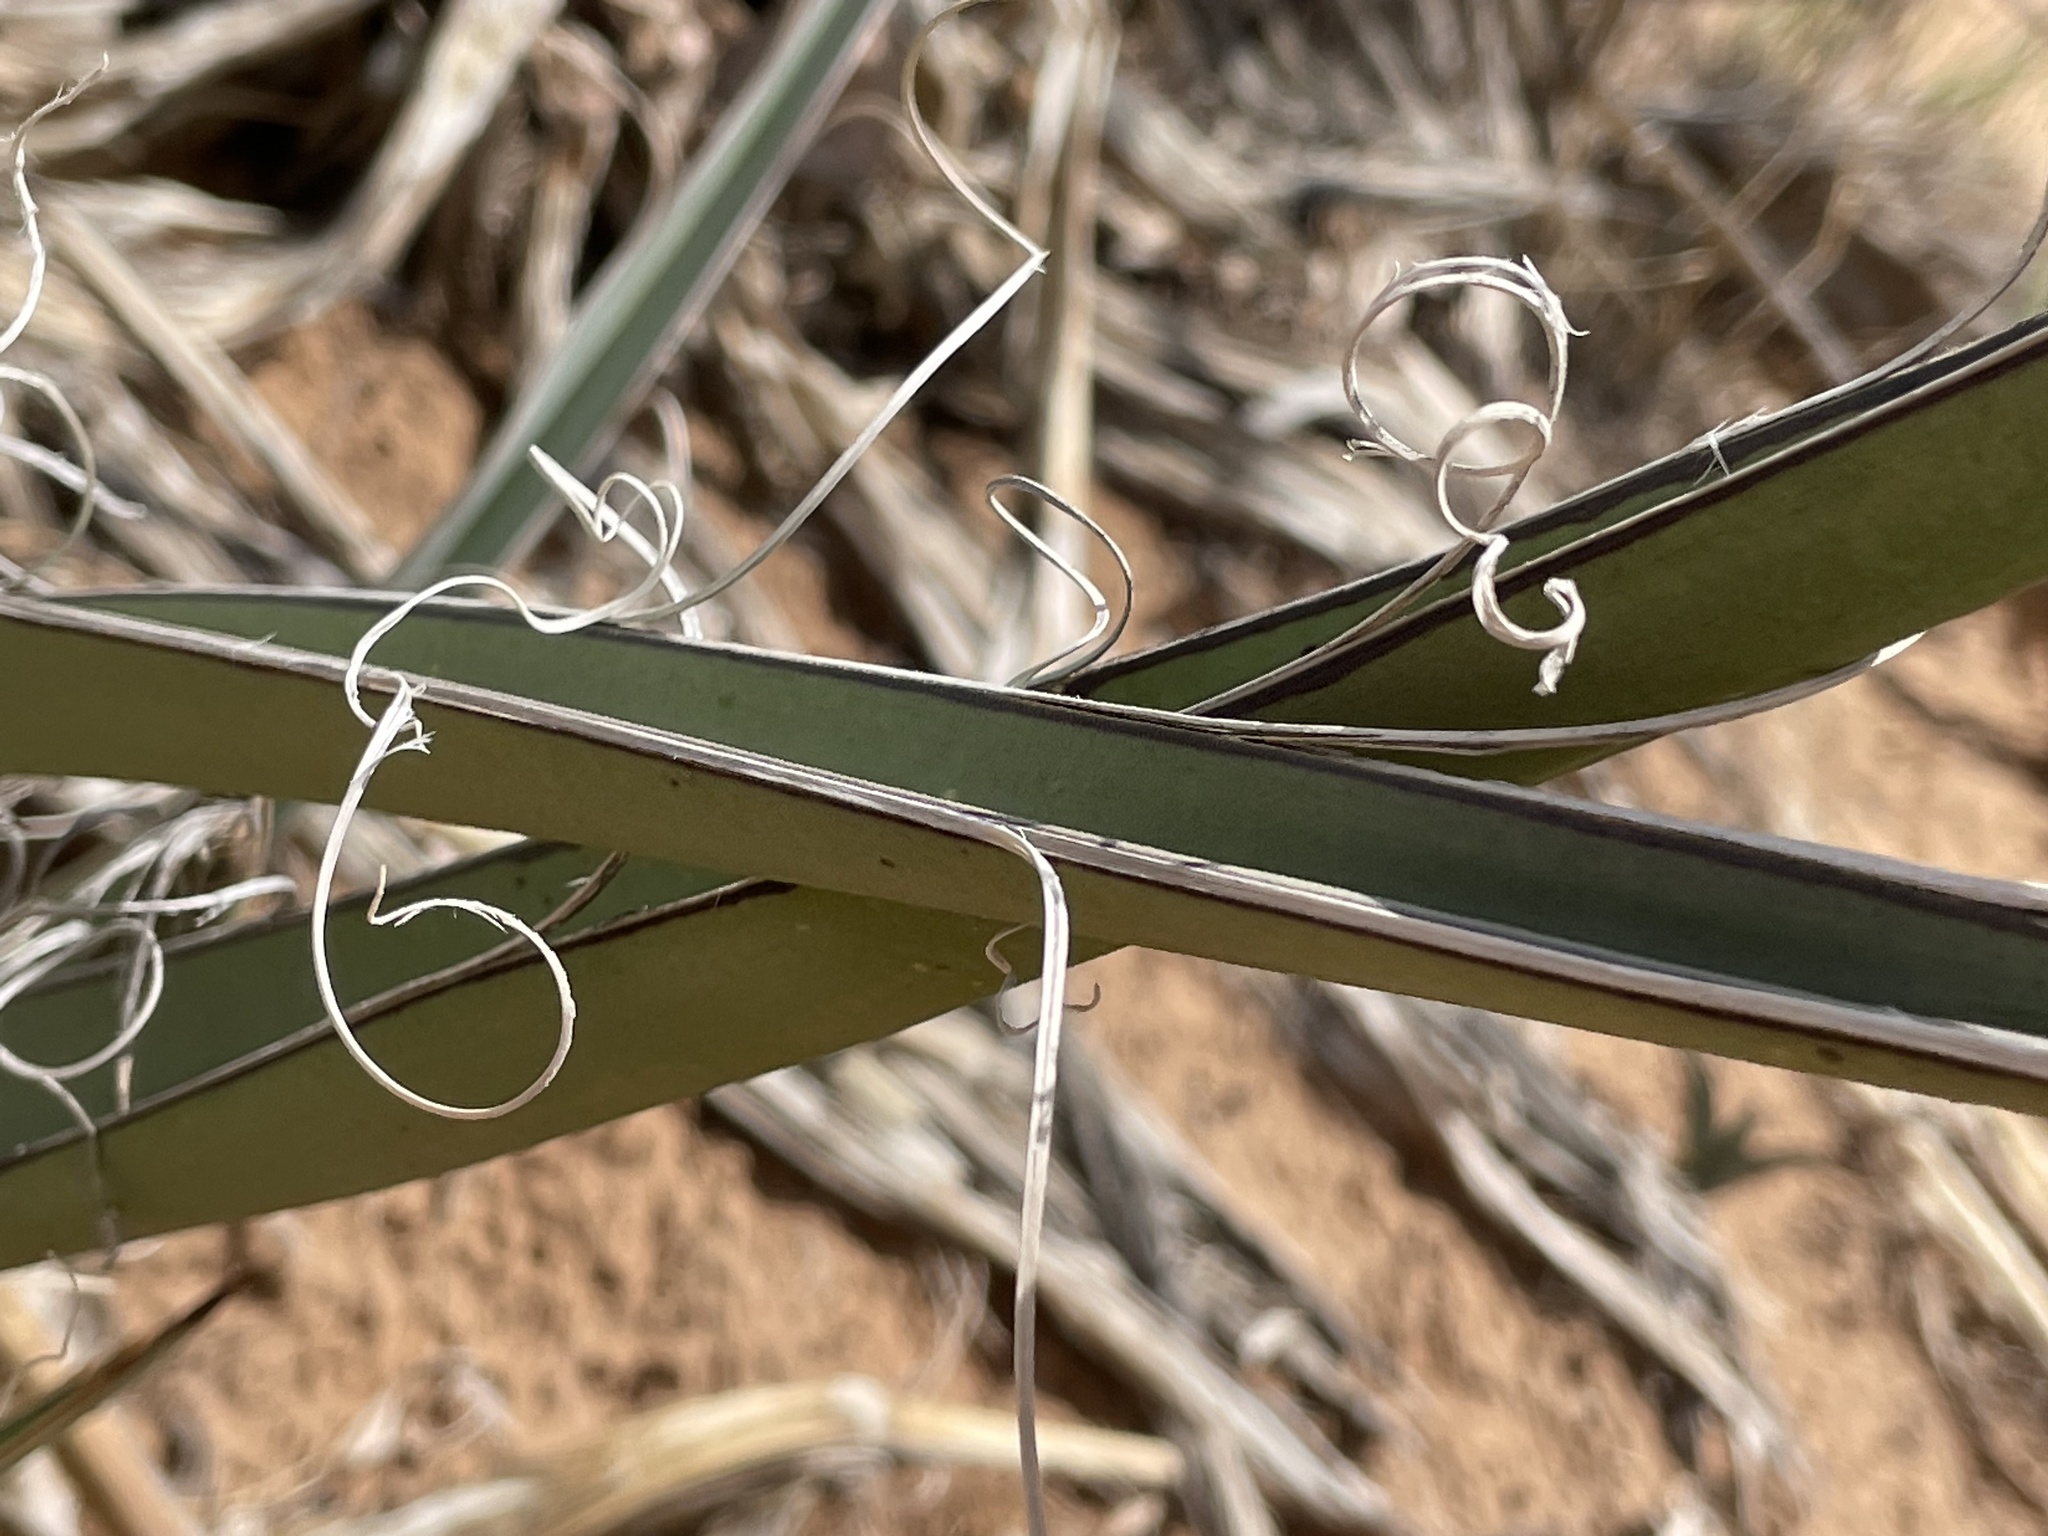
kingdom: Plantae
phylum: Tracheophyta
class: Liliopsida
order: Asparagales
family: Asparagaceae
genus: Yucca
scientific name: Yucca baccata
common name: Banana yucca
